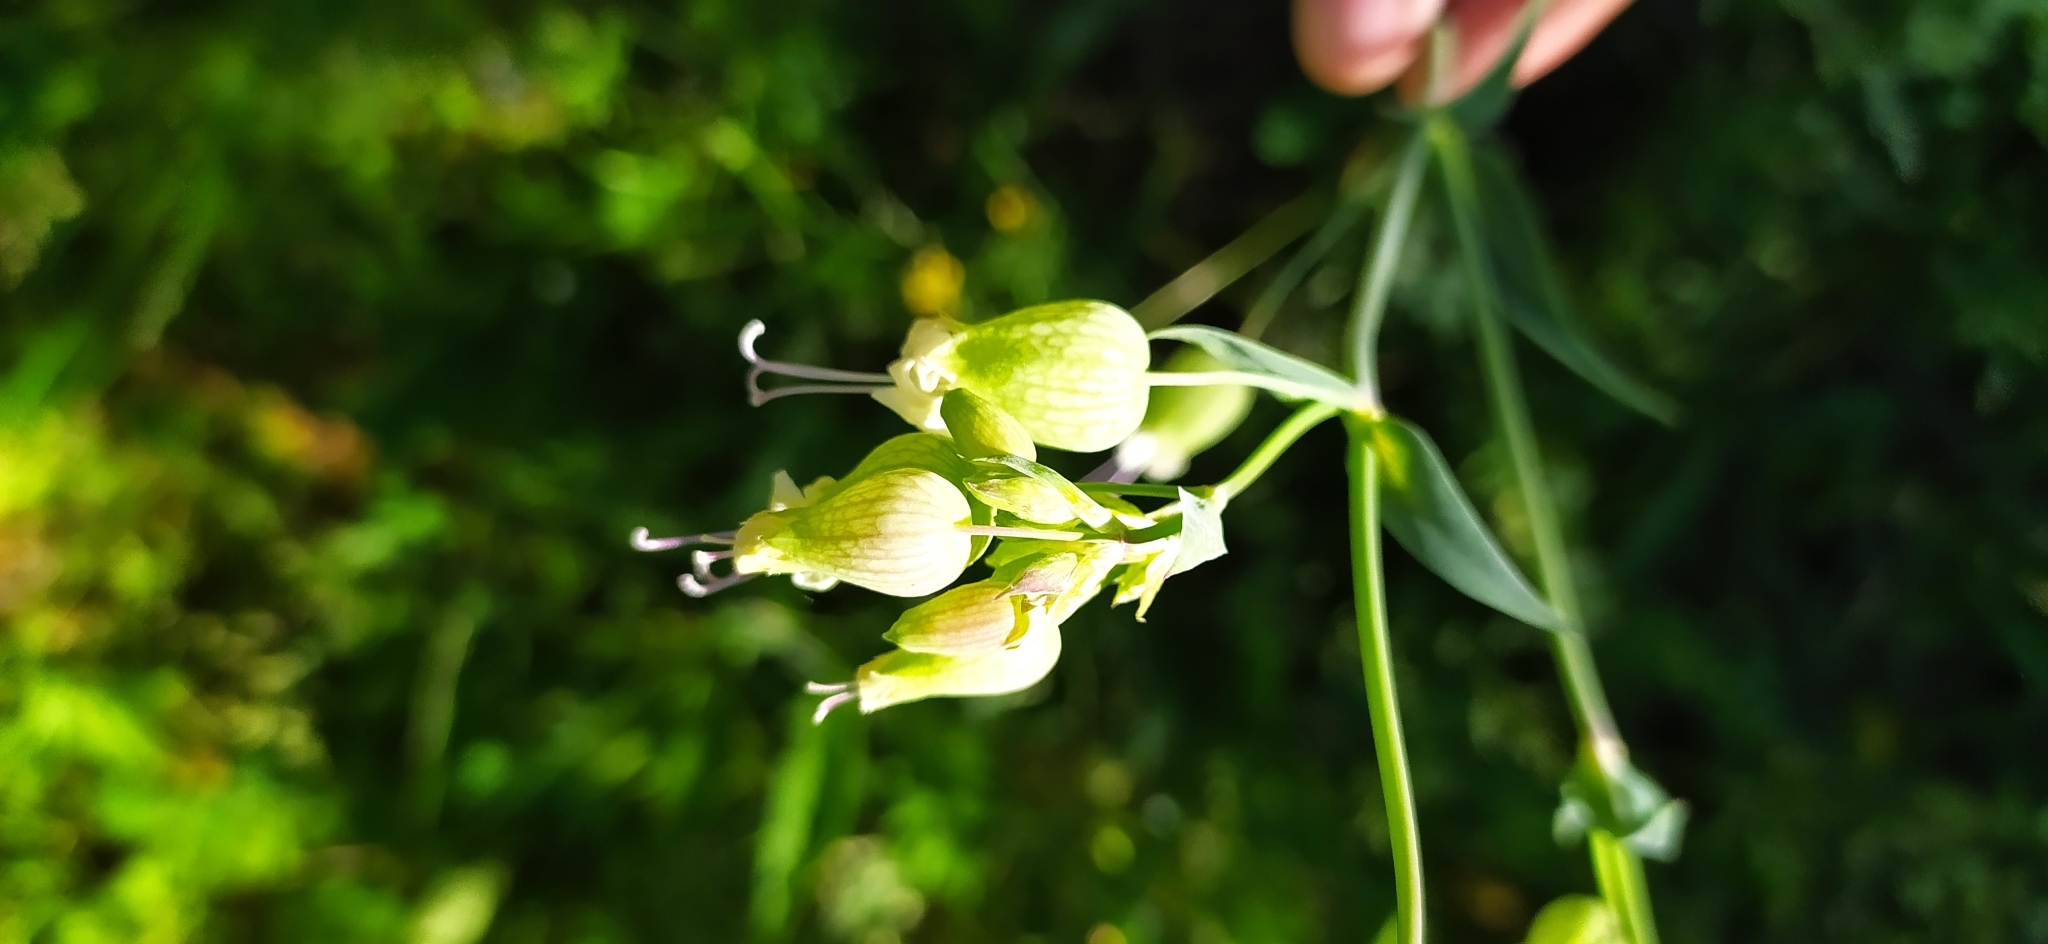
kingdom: Plantae
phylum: Tracheophyta
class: Magnoliopsida
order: Caryophyllales
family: Caryophyllaceae
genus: Silene
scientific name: Silene vulgaris
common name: Bladder campion
